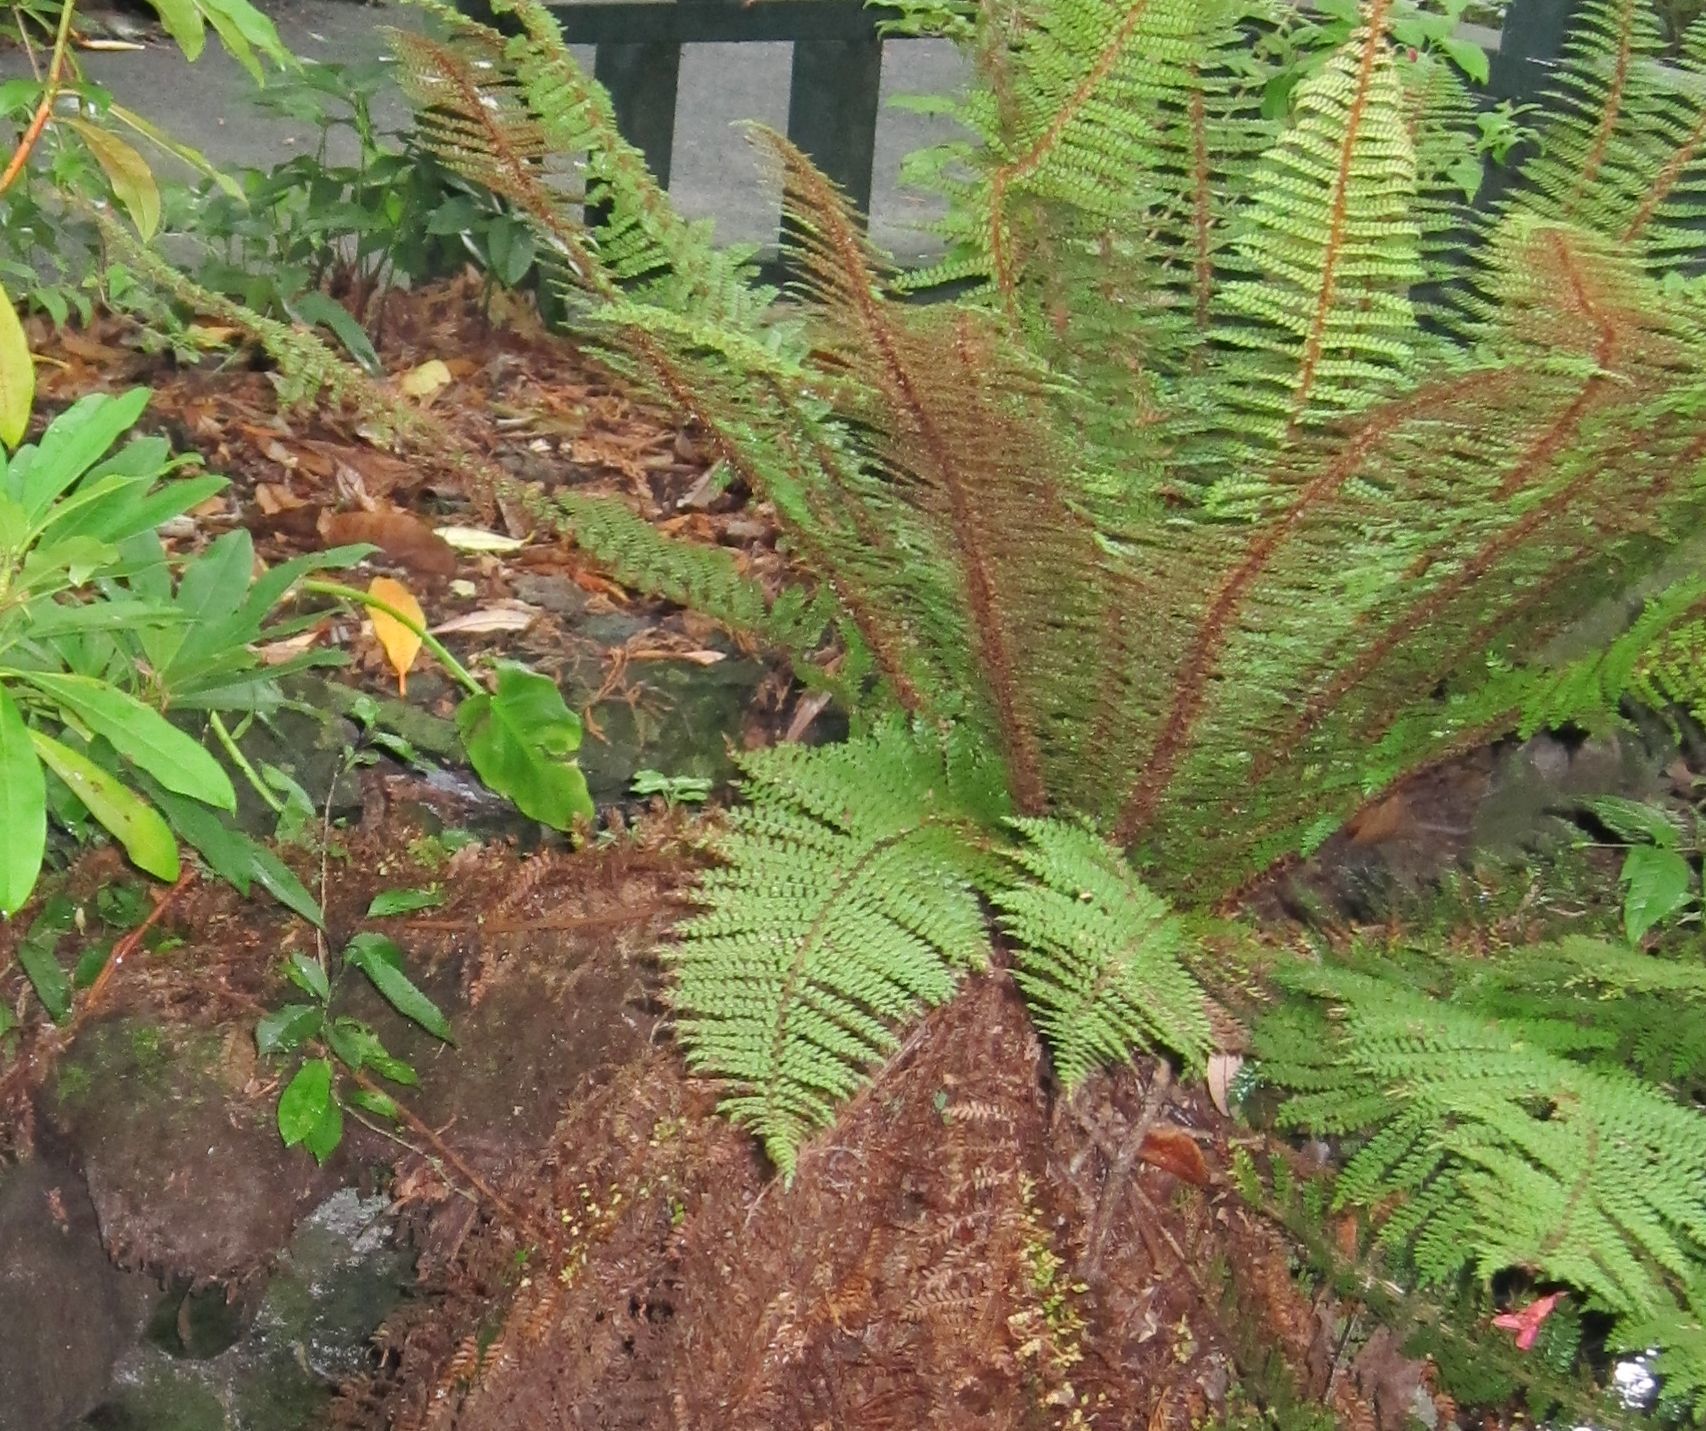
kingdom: Plantae
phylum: Tracheophyta
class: Polypodiopsida
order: Polypodiales
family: Dryopteridaceae
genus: Polystichum
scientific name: Polystichum vestitum
